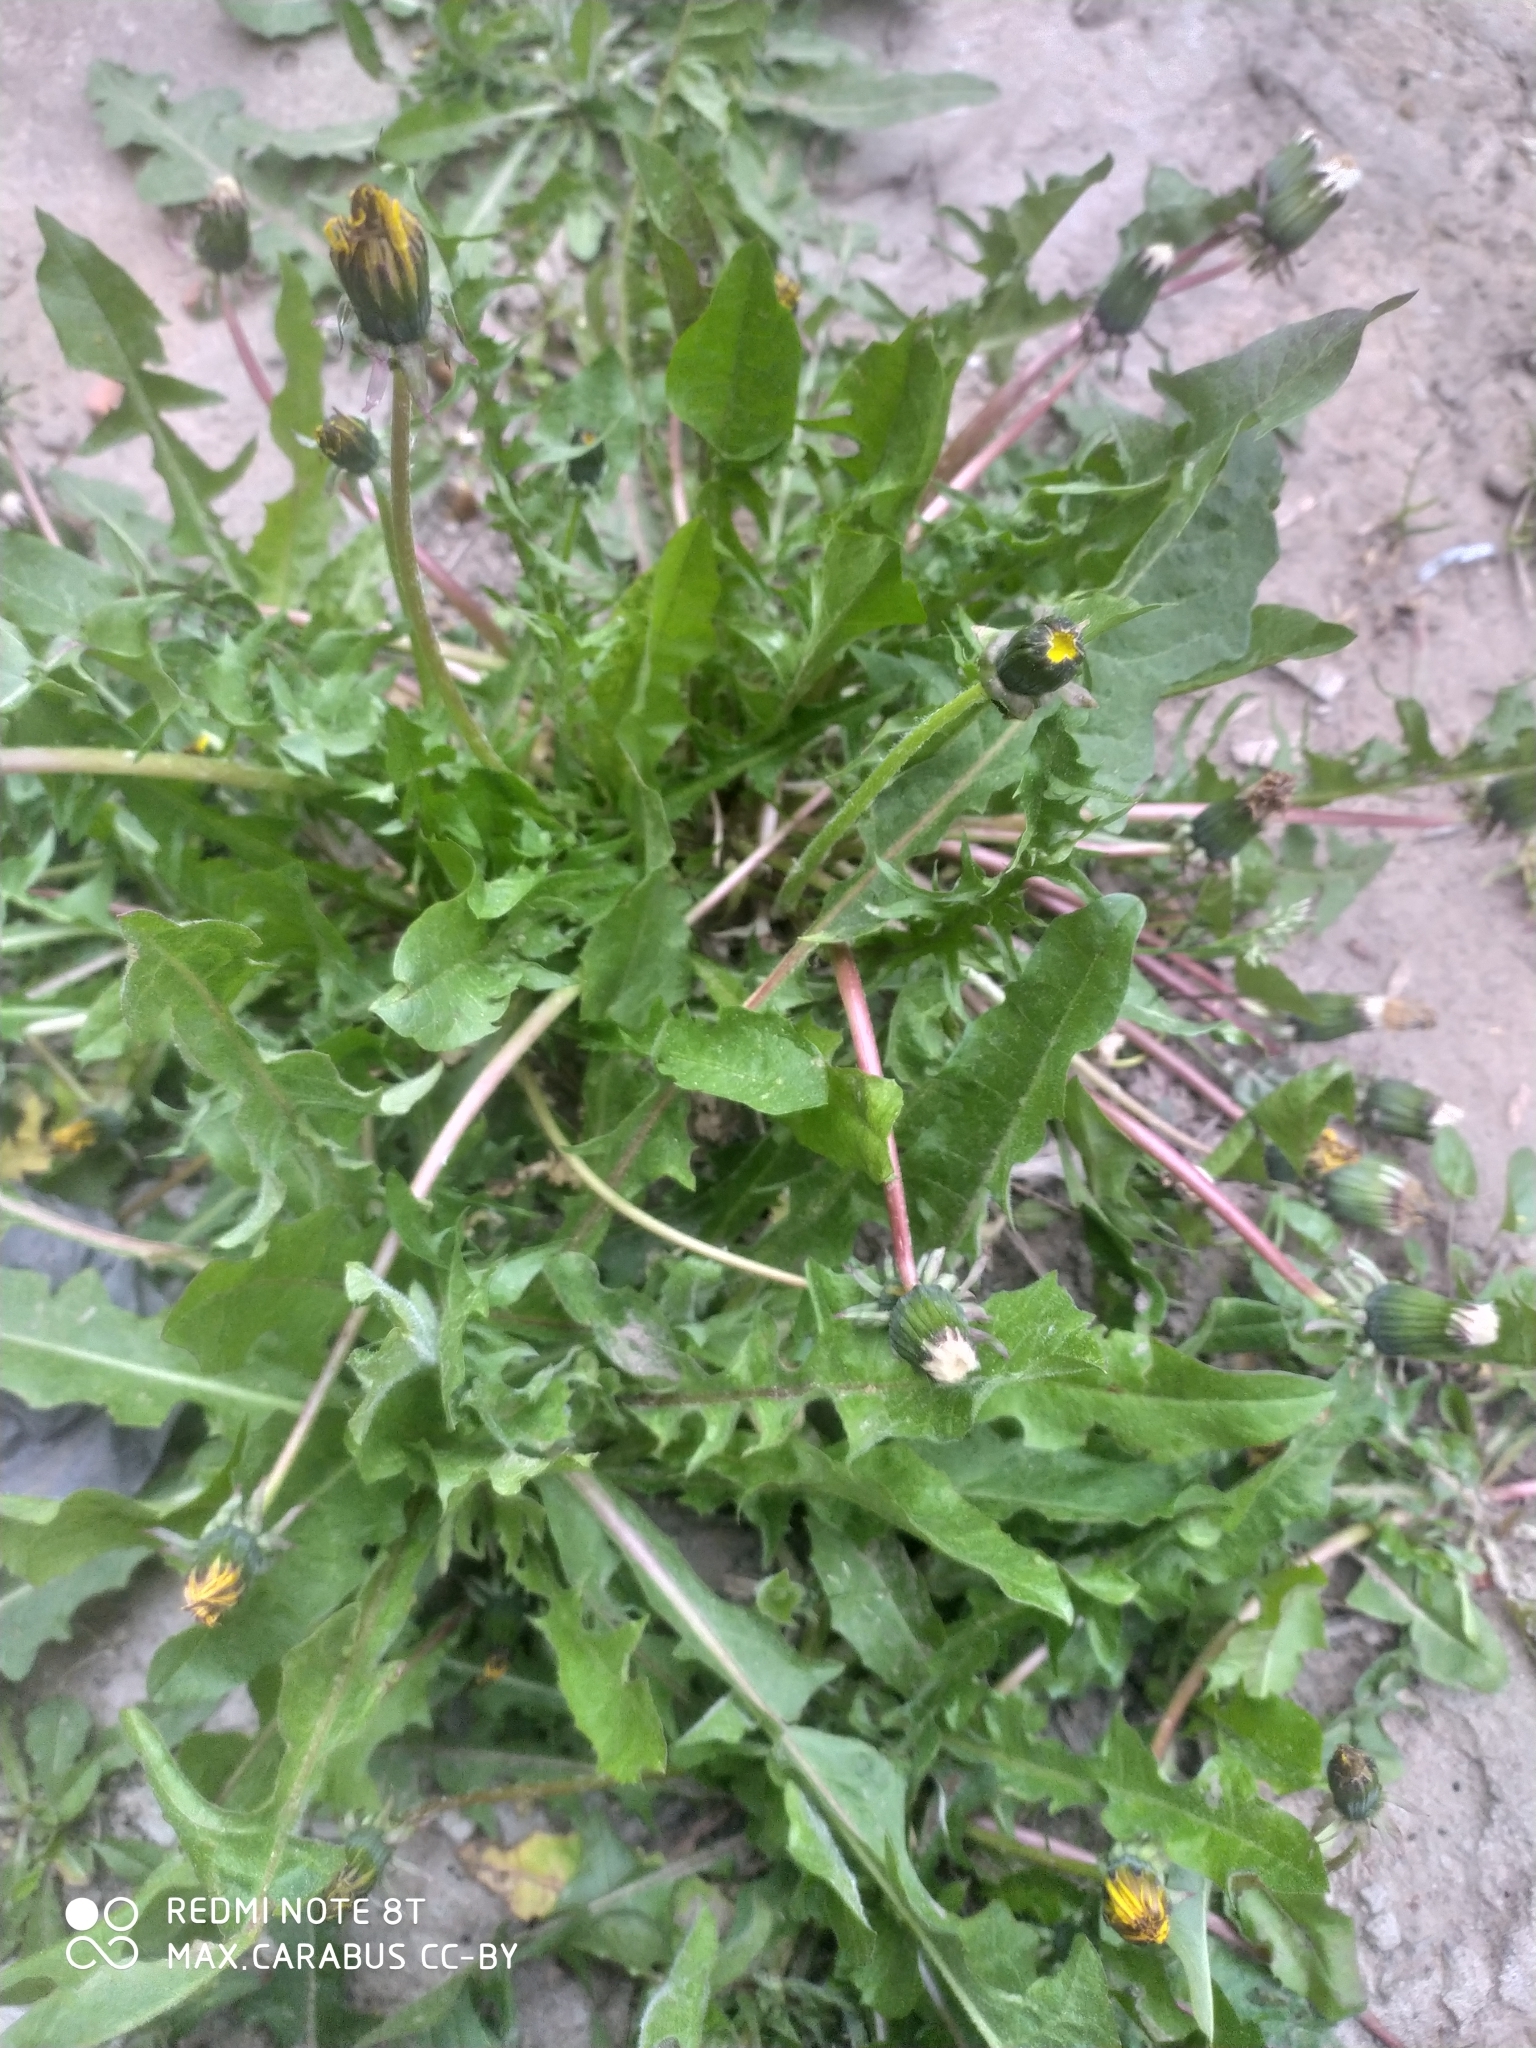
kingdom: Plantae
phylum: Tracheophyta
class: Magnoliopsida
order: Asterales
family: Asteraceae
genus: Taraxacum
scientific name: Taraxacum officinale
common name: Common dandelion
